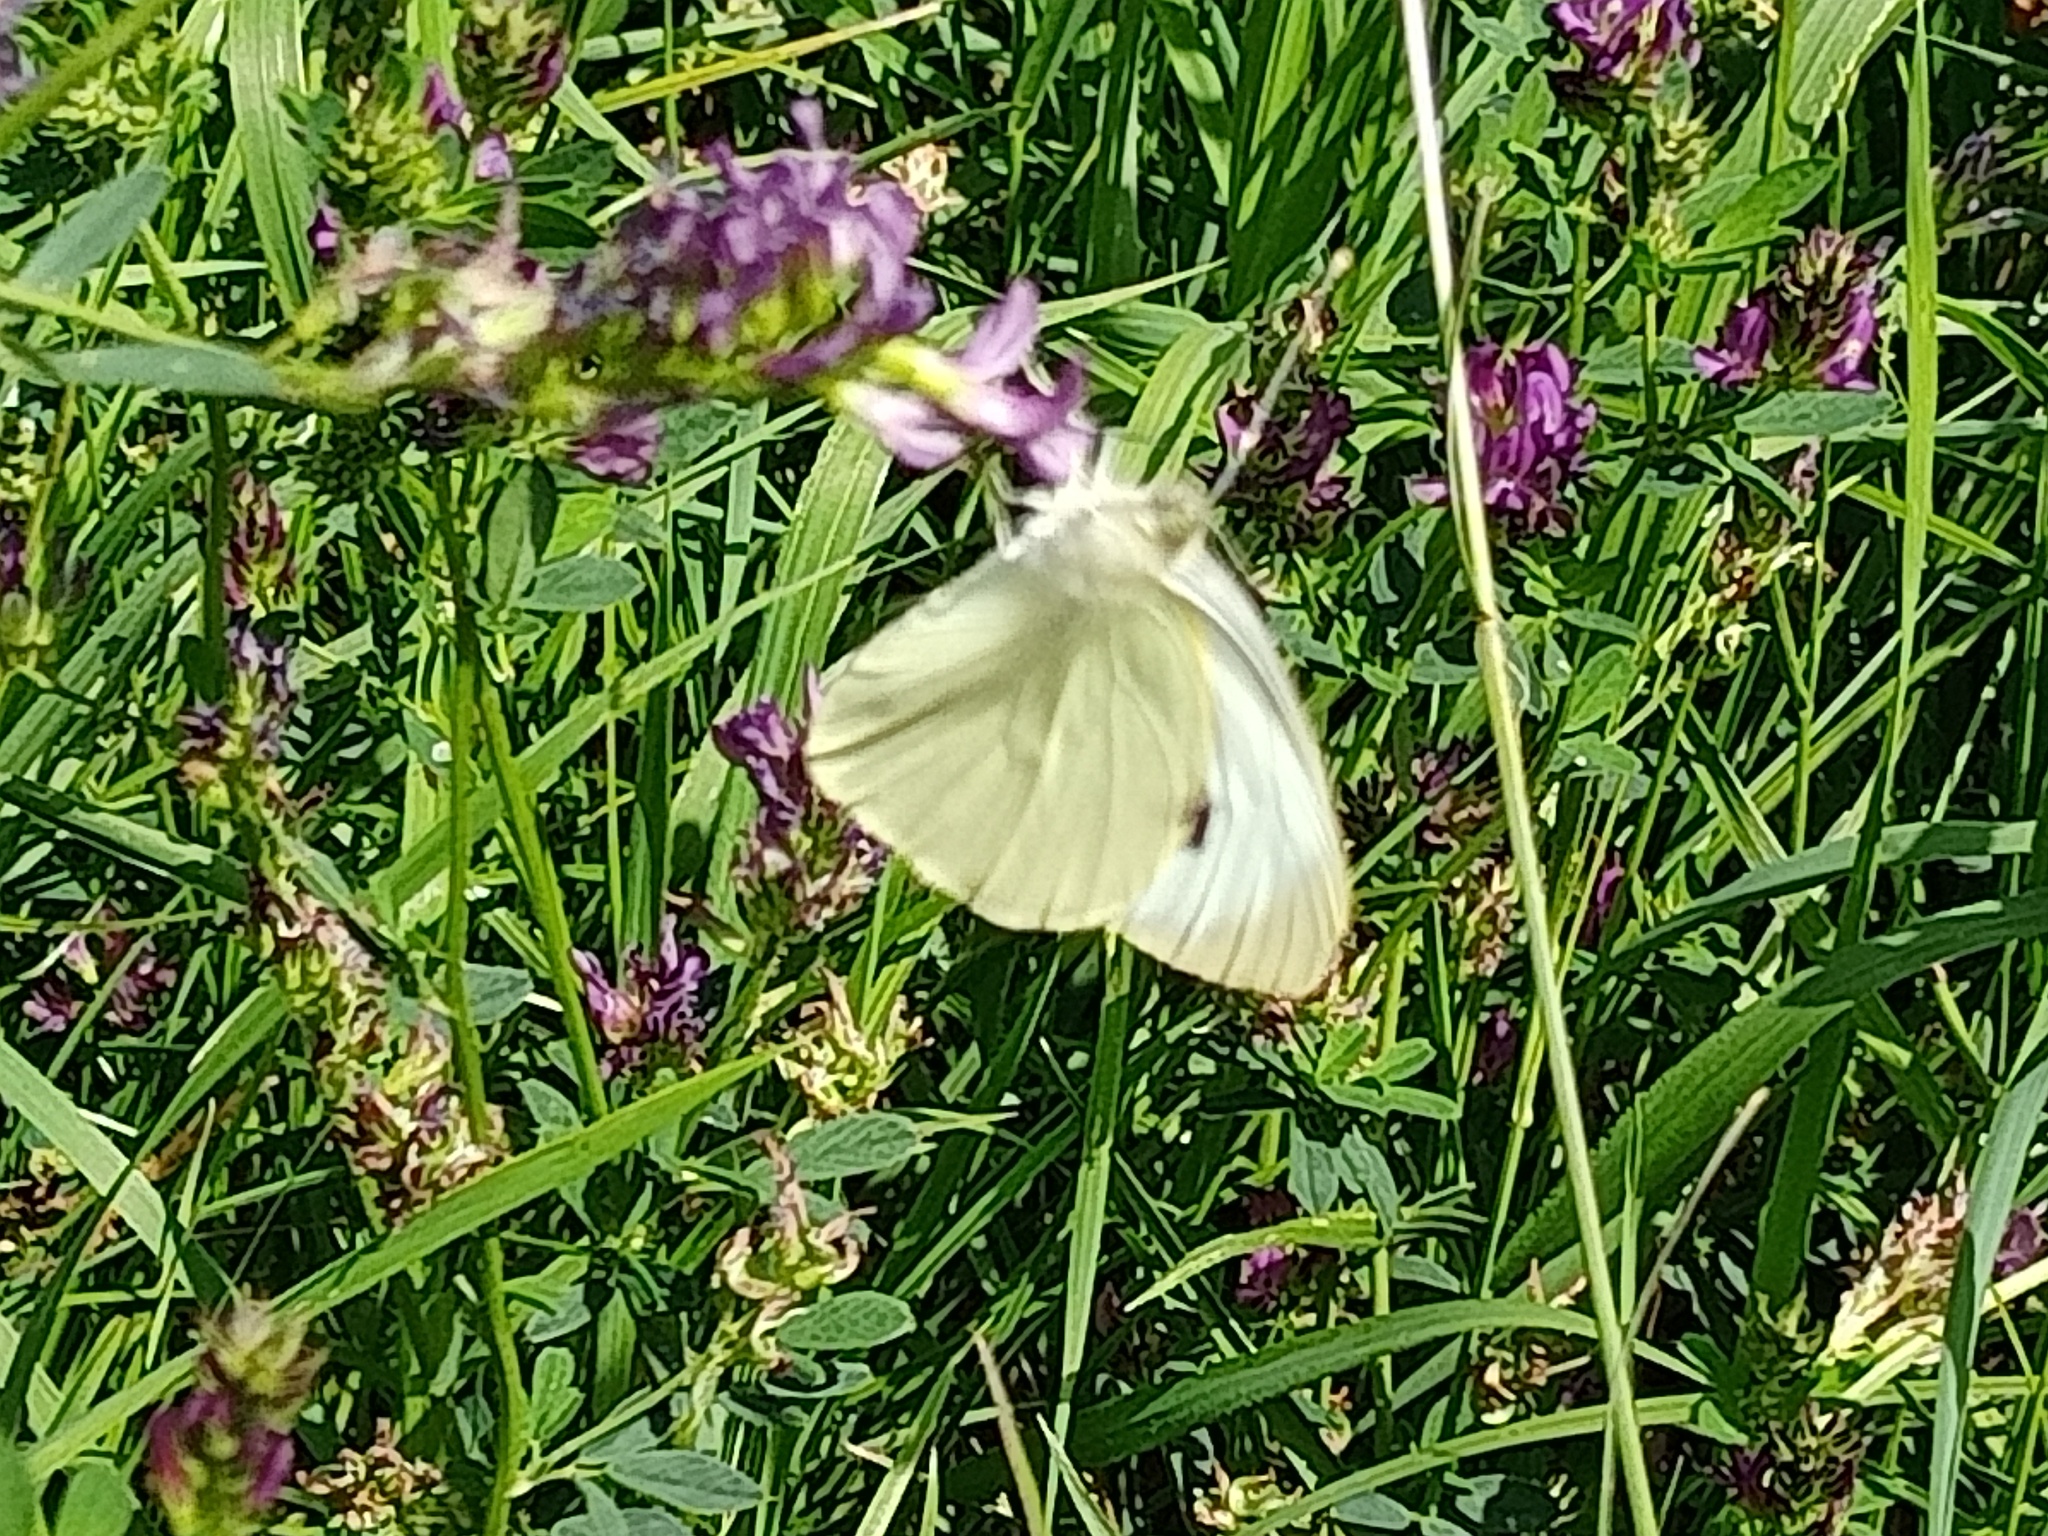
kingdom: Animalia
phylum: Arthropoda
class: Insecta
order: Lepidoptera
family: Pieridae
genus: Pieris
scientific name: Pieris brassicae
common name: Large white
